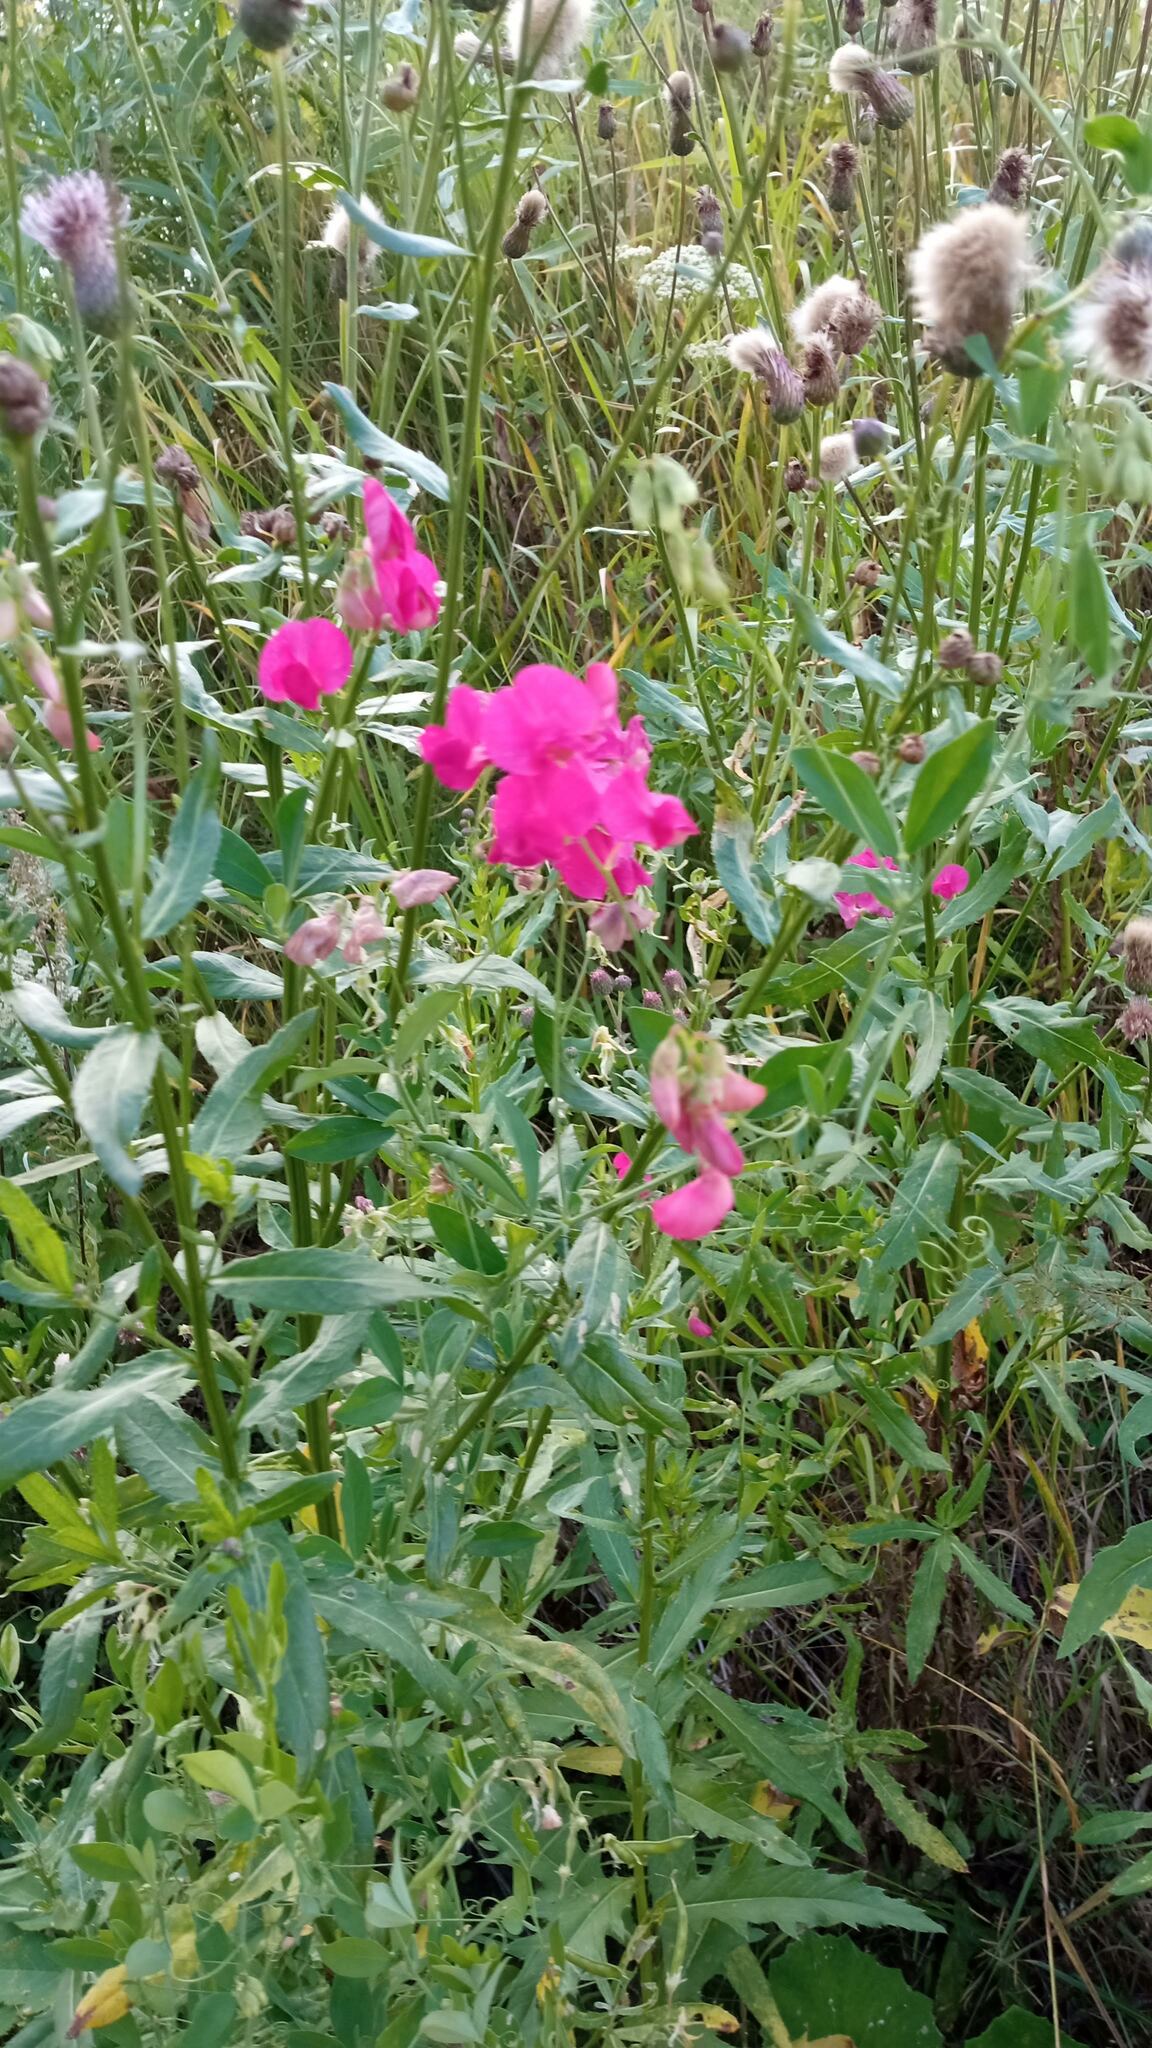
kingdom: Plantae
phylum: Tracheophyta
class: Magnoliopsida
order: Fabales
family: Fabaceae
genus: Lathyrus
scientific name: Lathyrus tuberosus
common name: Tuberous pea
